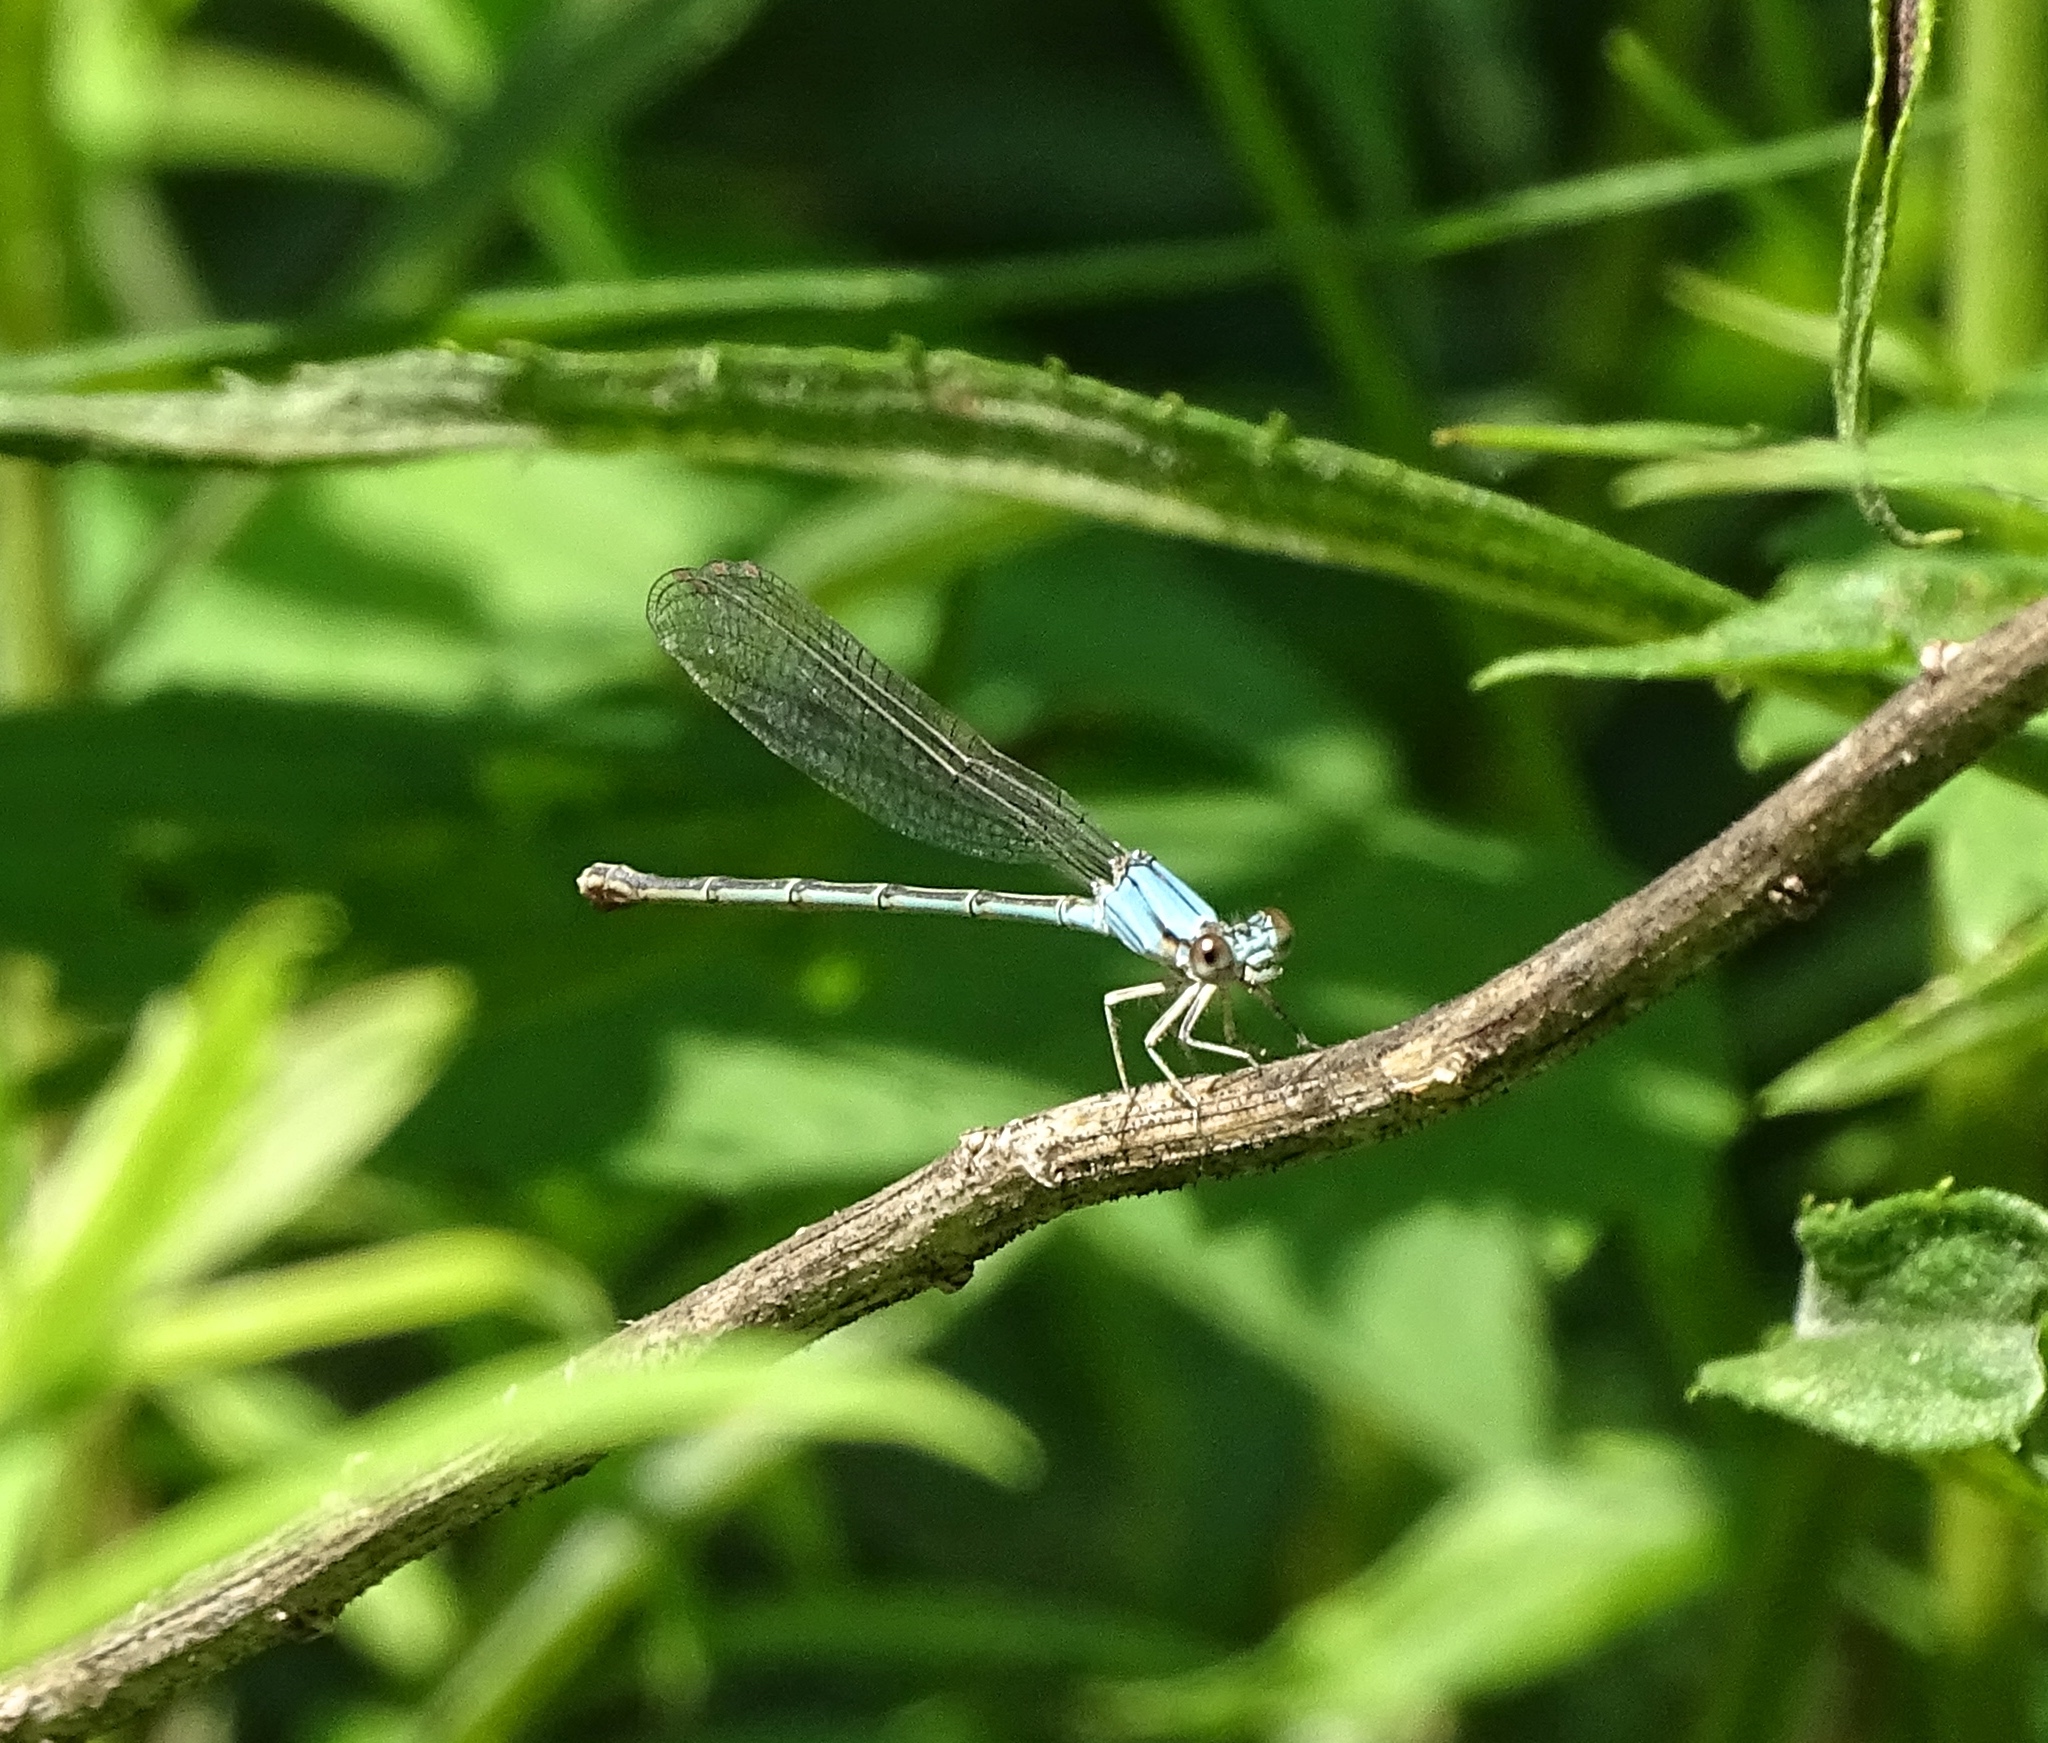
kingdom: Animalia
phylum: Arthropoda
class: Insecta
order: Odonata
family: Coenagrionidae
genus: Argia
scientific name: Argia apicalis
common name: Blue-fronted dancer
